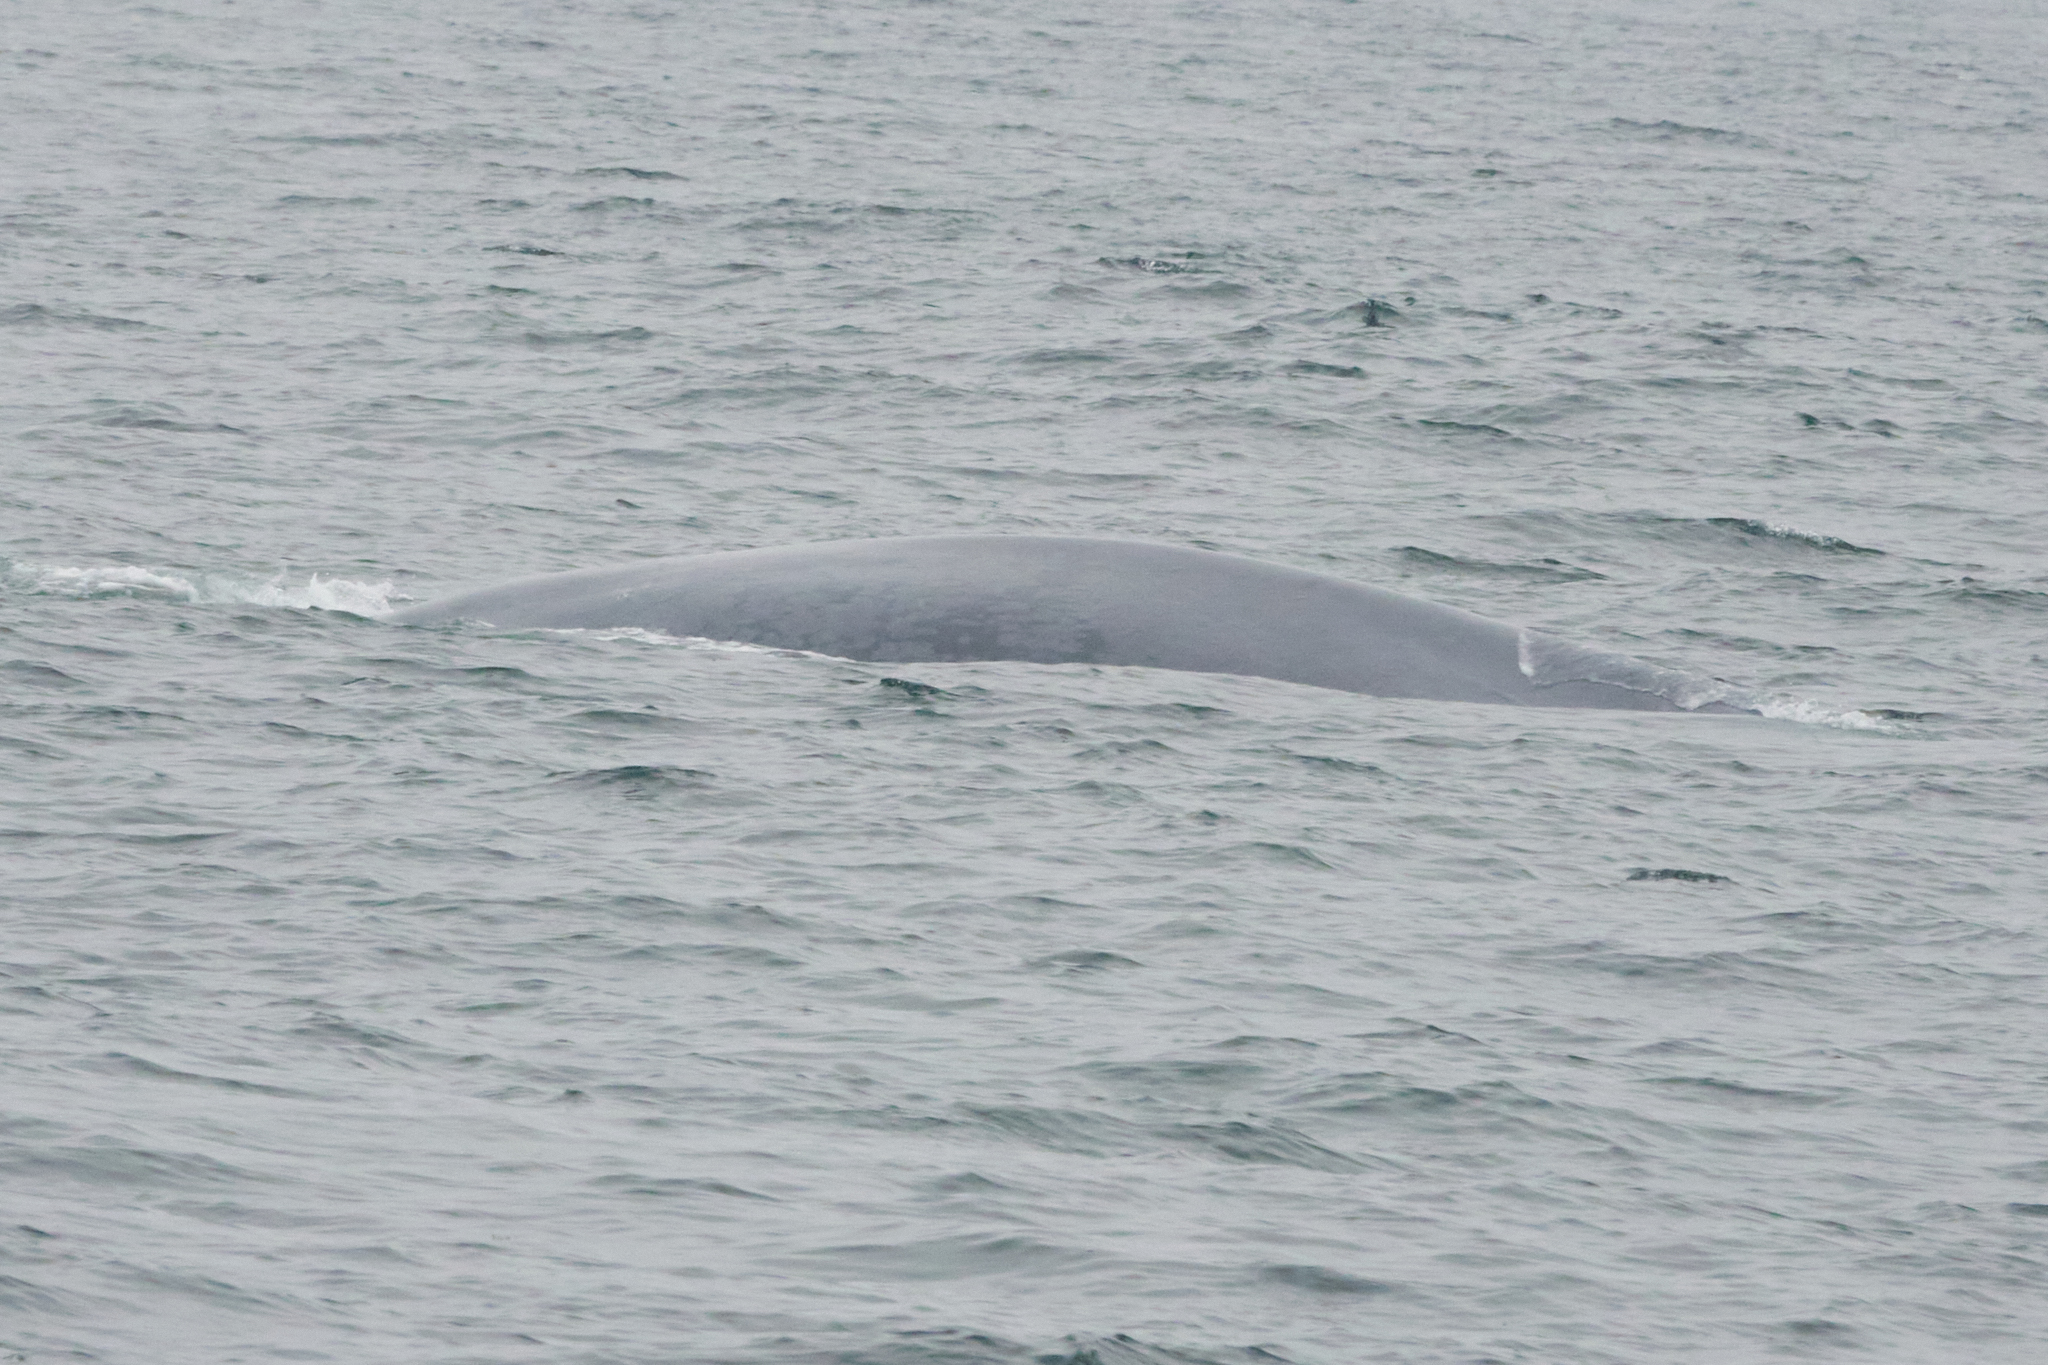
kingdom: Animalia
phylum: Chordata
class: Mammalia
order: Cetacea
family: Balaenopteridae
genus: Balaenoptera
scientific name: Balaenoptera musculus
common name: Blue whale
